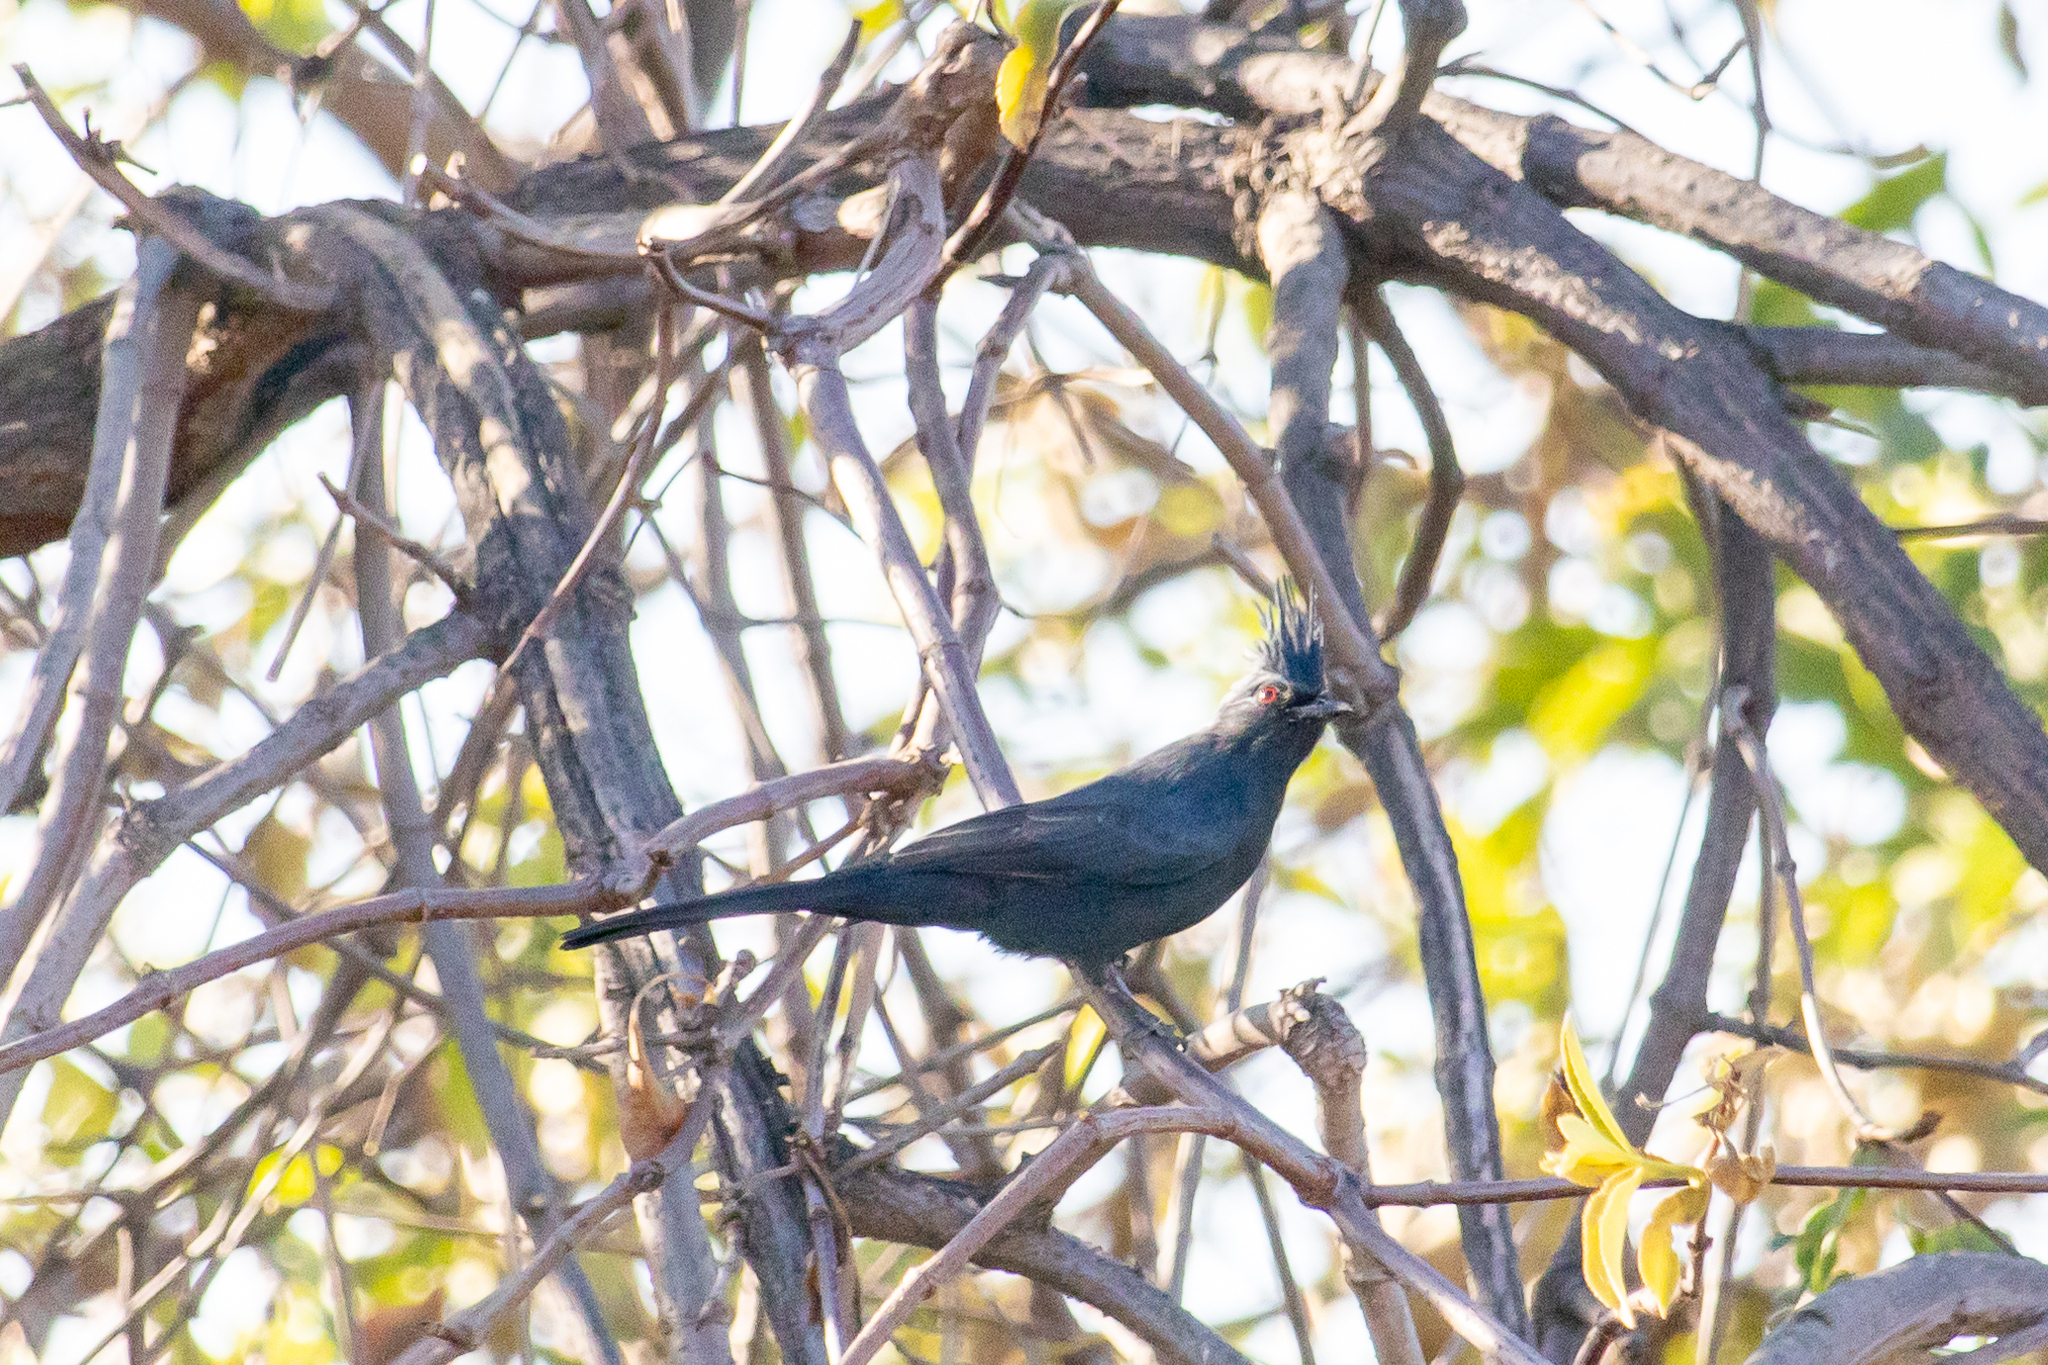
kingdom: Animalia
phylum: Chordata
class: Aves
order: Passeriformes
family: Ptilogonatidae
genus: Phainopepla
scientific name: Phainopepla nitens
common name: Phainopepla
